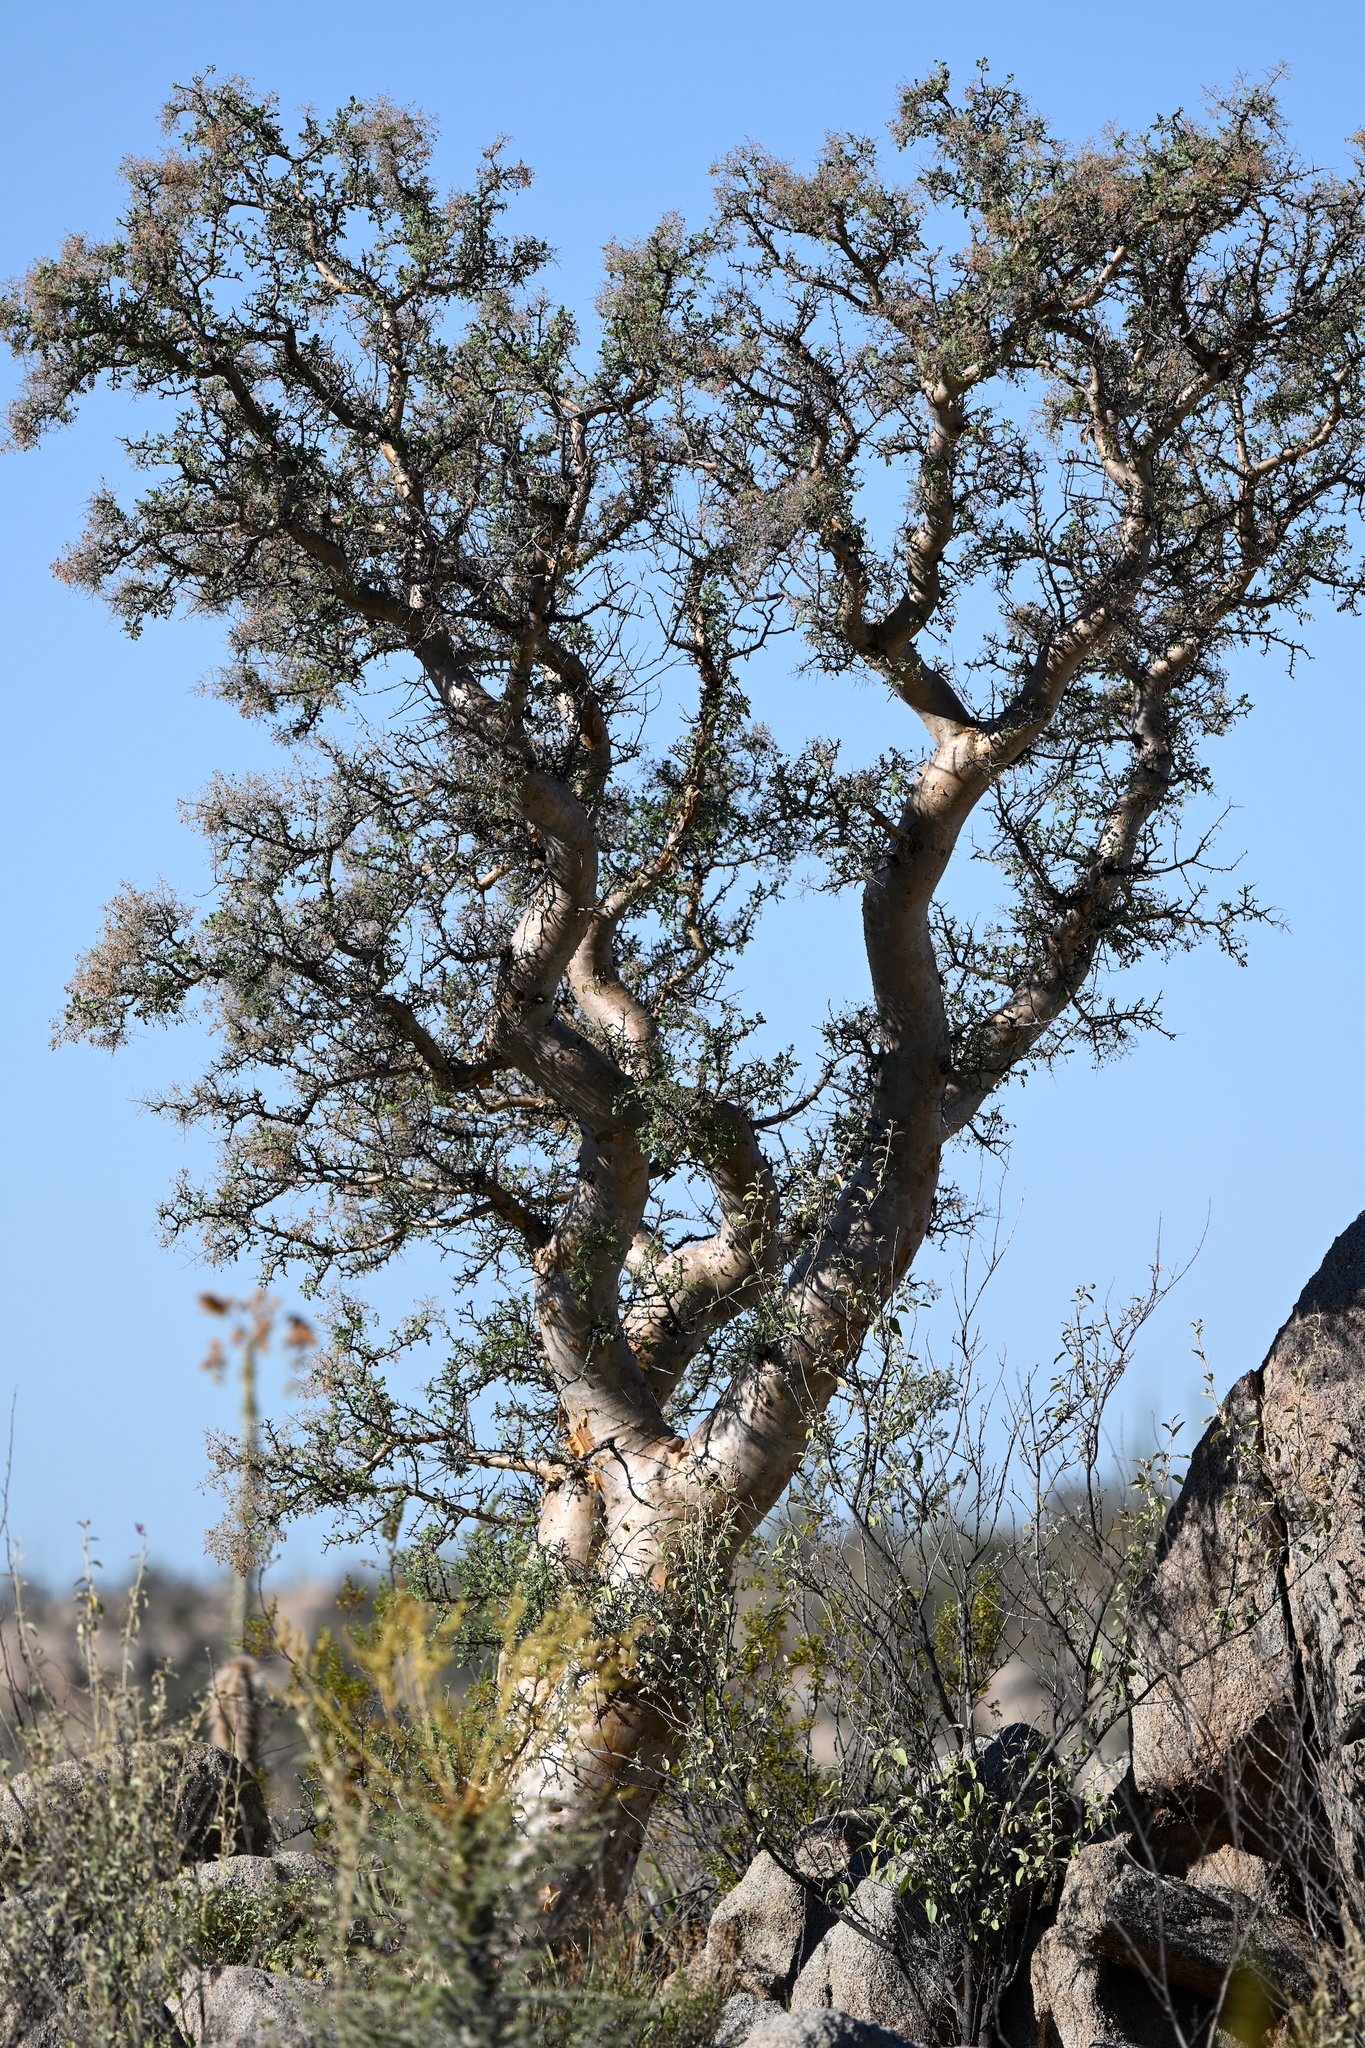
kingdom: Plantae
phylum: Tracheophyta
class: Magnoliopsida
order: Sapindales
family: Anacardiaceae
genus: Pachycormus
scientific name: Pachycormus discolor
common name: Succulent elephant trees
